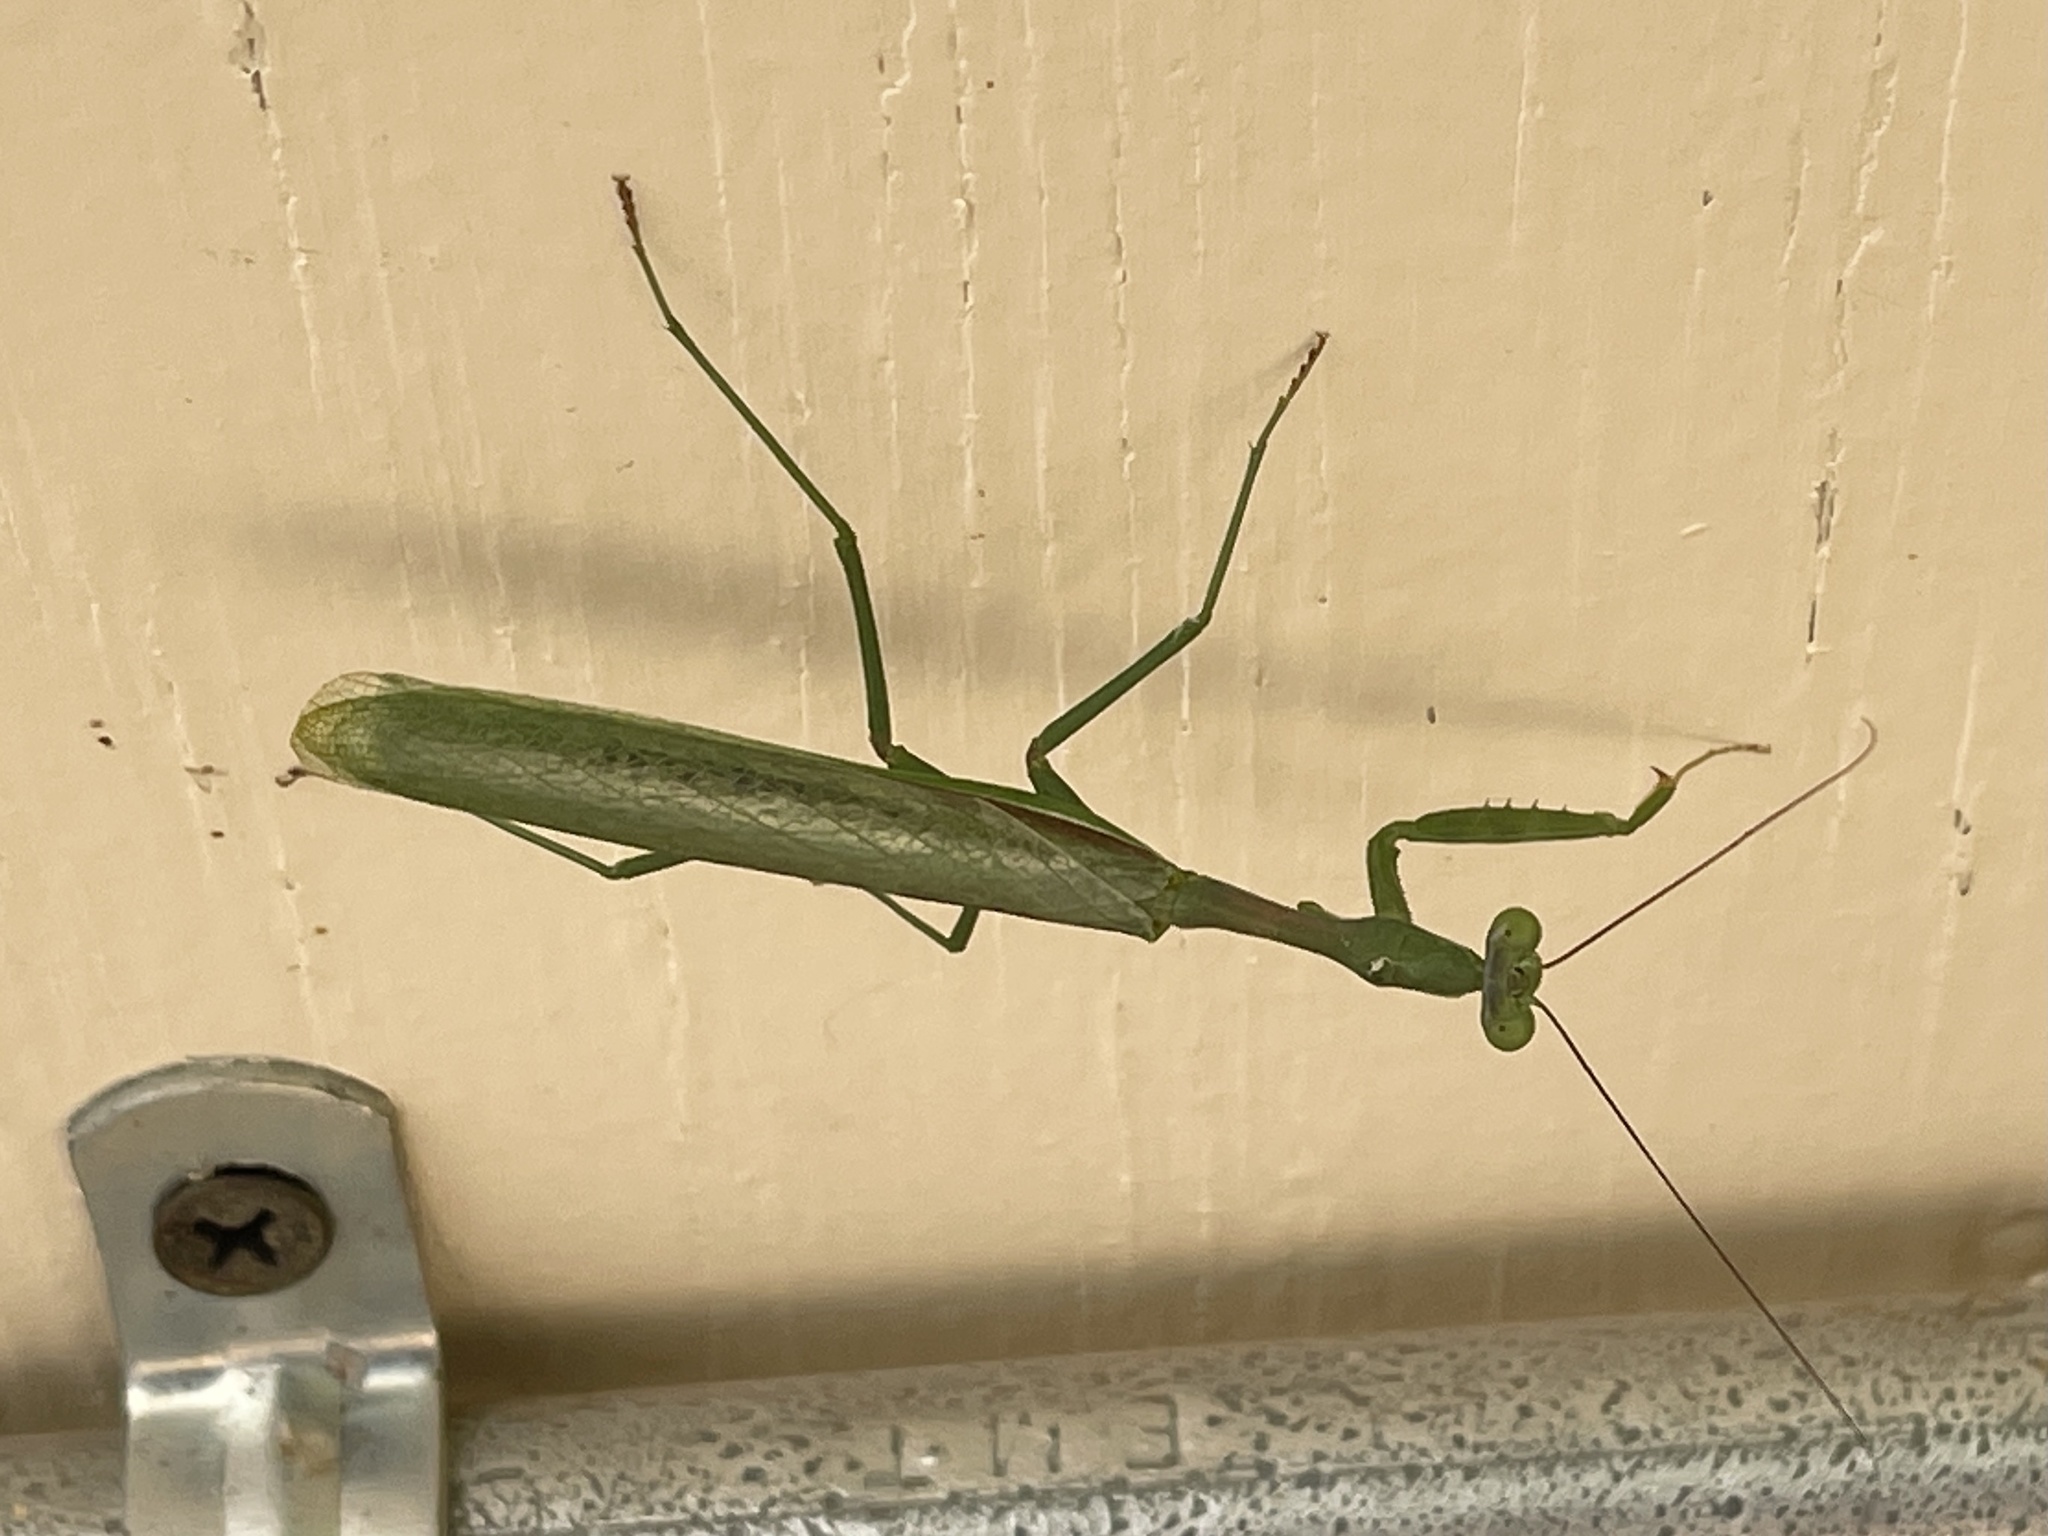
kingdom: Animalia
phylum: Arthropoda
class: Insecta
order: Mantodea
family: Mantidae
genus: Stagmomantis
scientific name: Stagmomantis limbata
